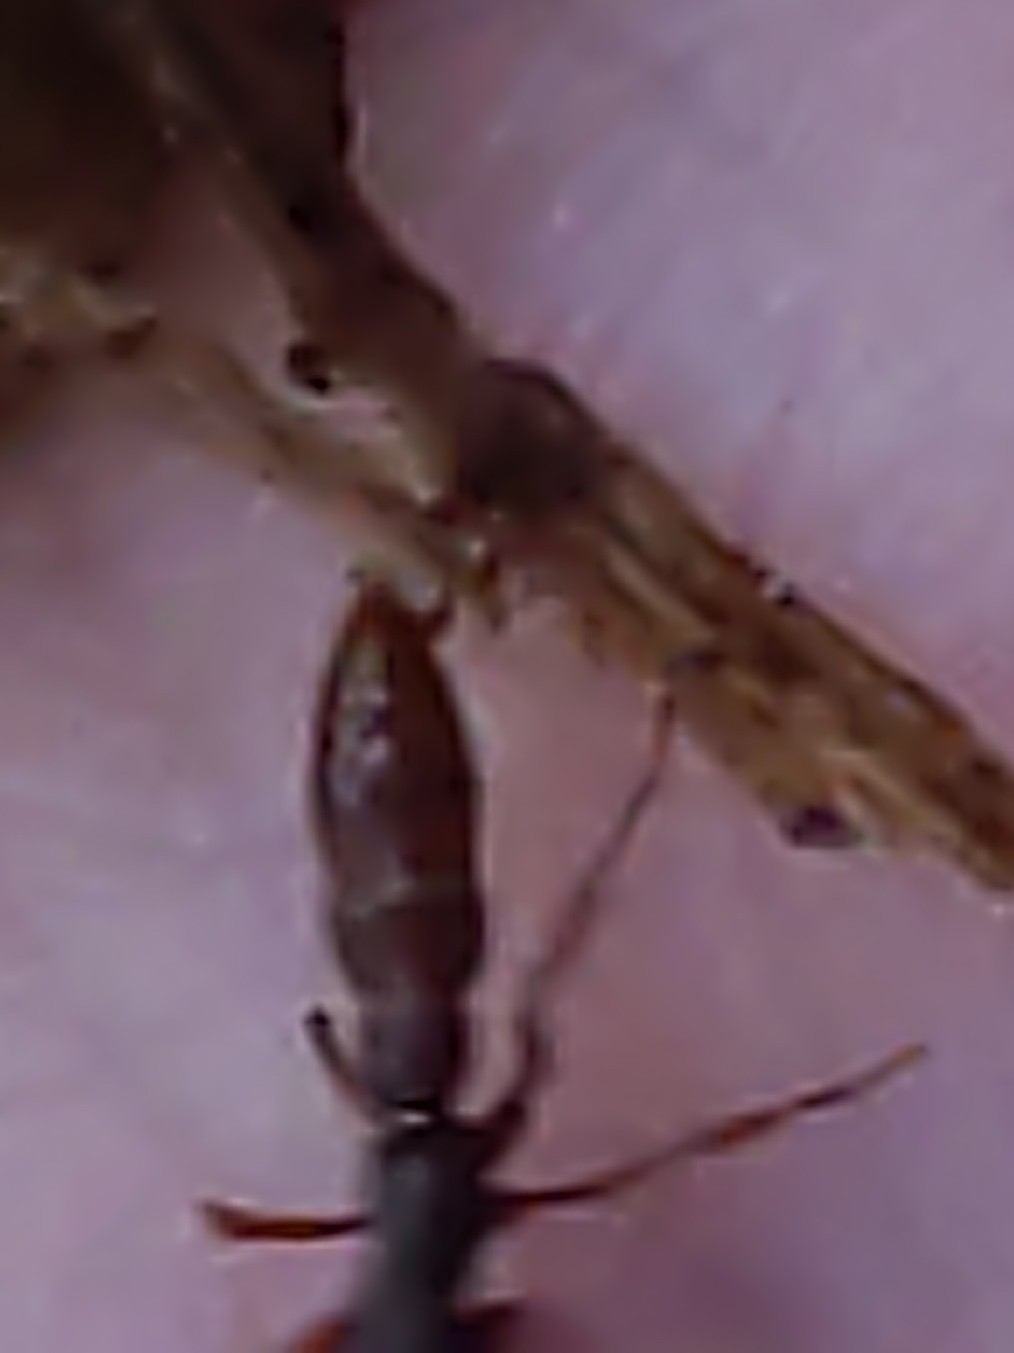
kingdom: Animalia
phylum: Arthropoda
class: Insecta
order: Hymenoptera
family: Formicidae
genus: Stigmatomma
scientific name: Stigmatomma pallipes
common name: Vampire ant
